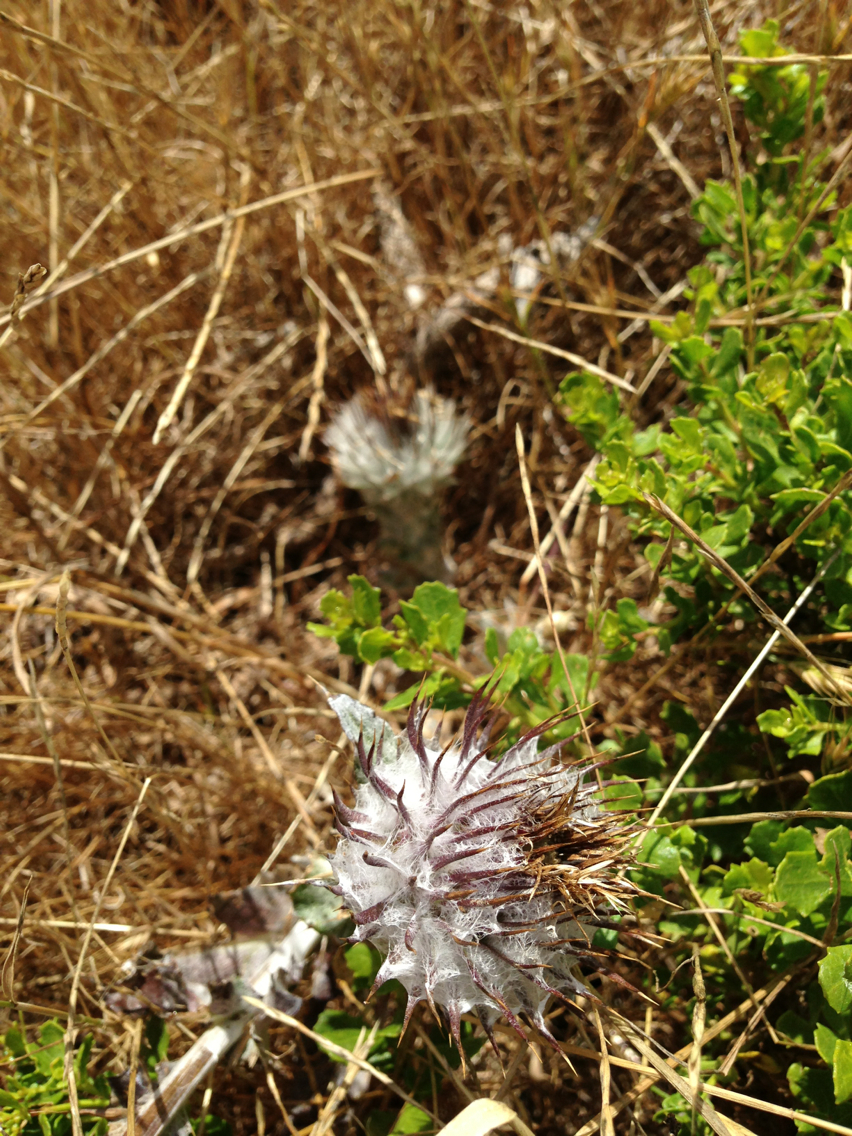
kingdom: Plantae
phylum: Tracheophyta
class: Magnoliopsida
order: Asterales
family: Asteraceae
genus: Cirsium
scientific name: Cirsium occidentale
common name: Western thistle
